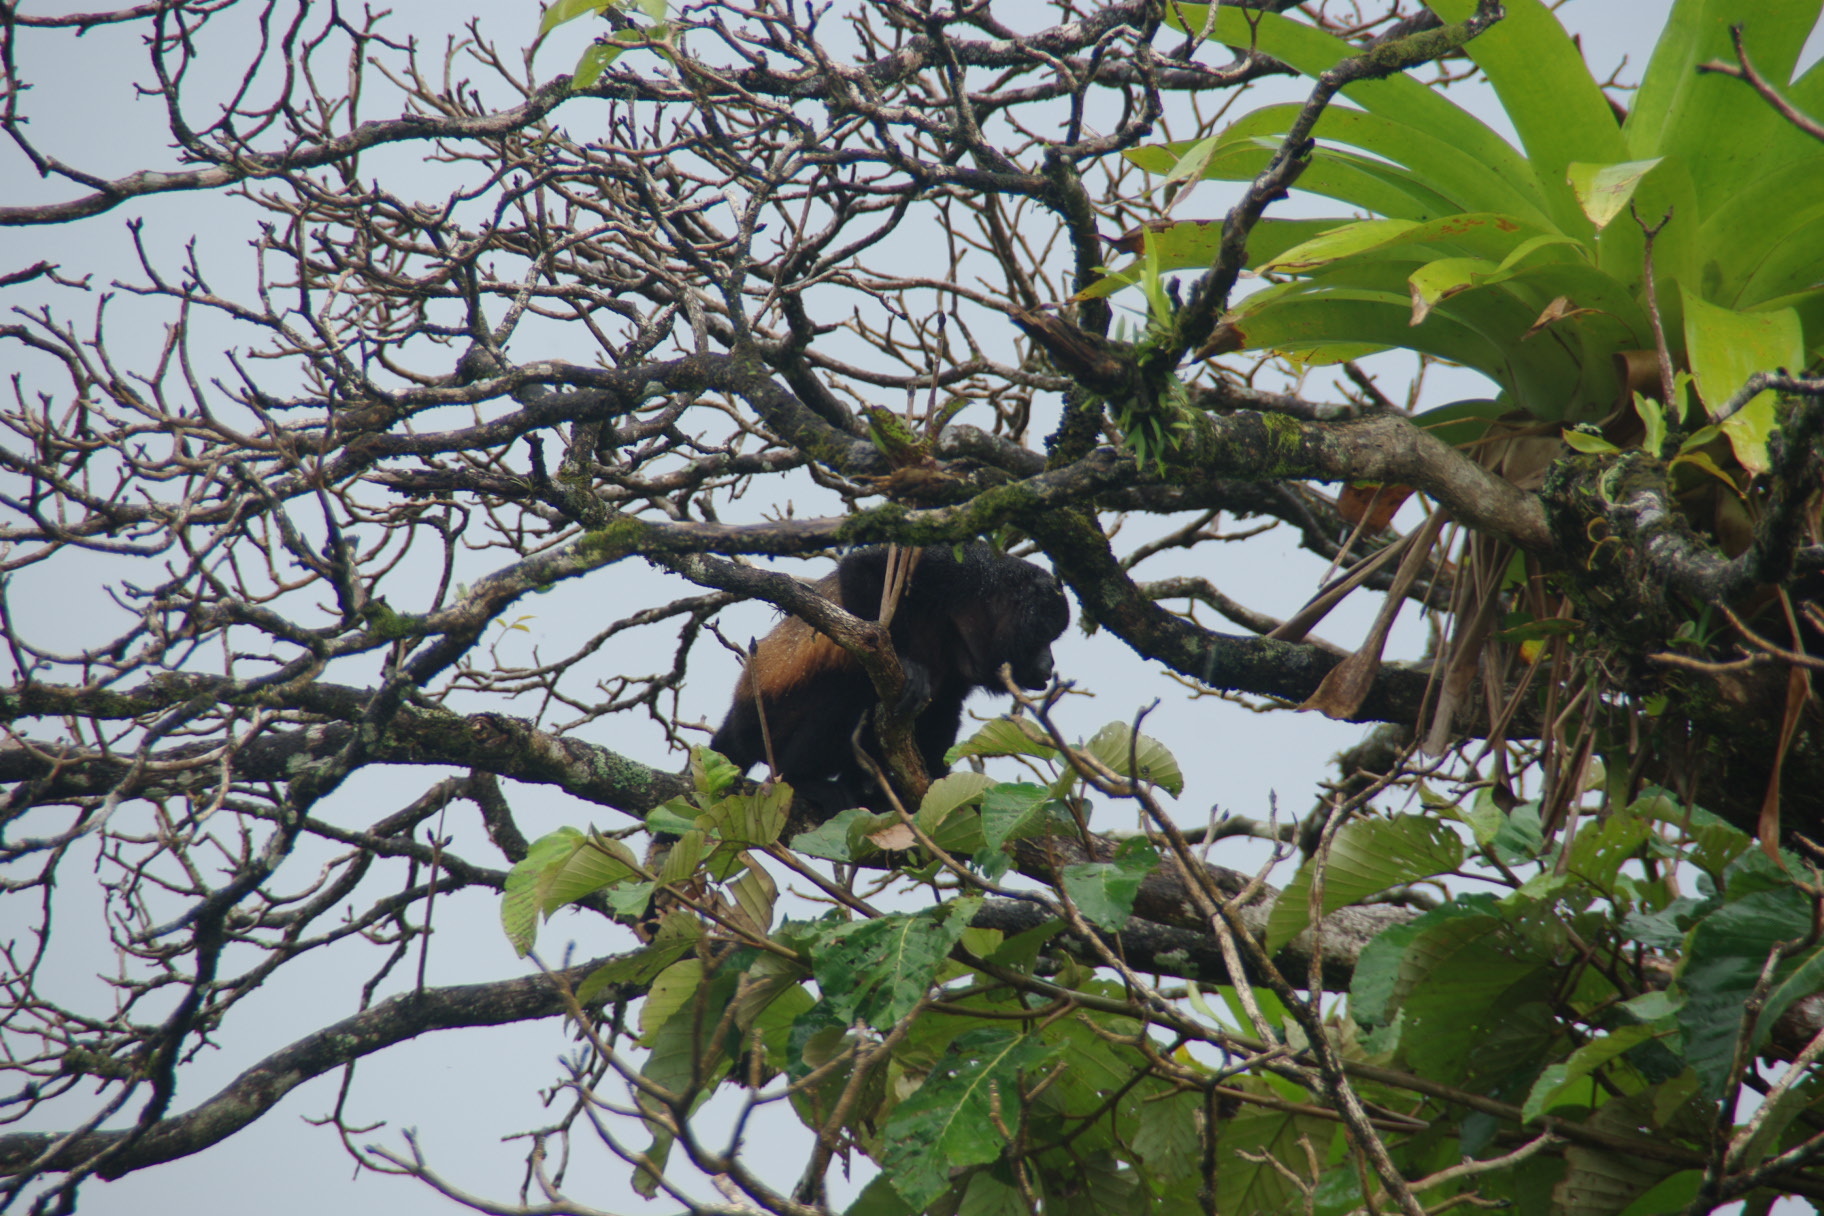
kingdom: Animalia
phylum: Chordata
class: Mammalia
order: Primates
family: Atelidae
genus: Alouatta
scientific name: Alouatta palliata
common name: Mantled howler
